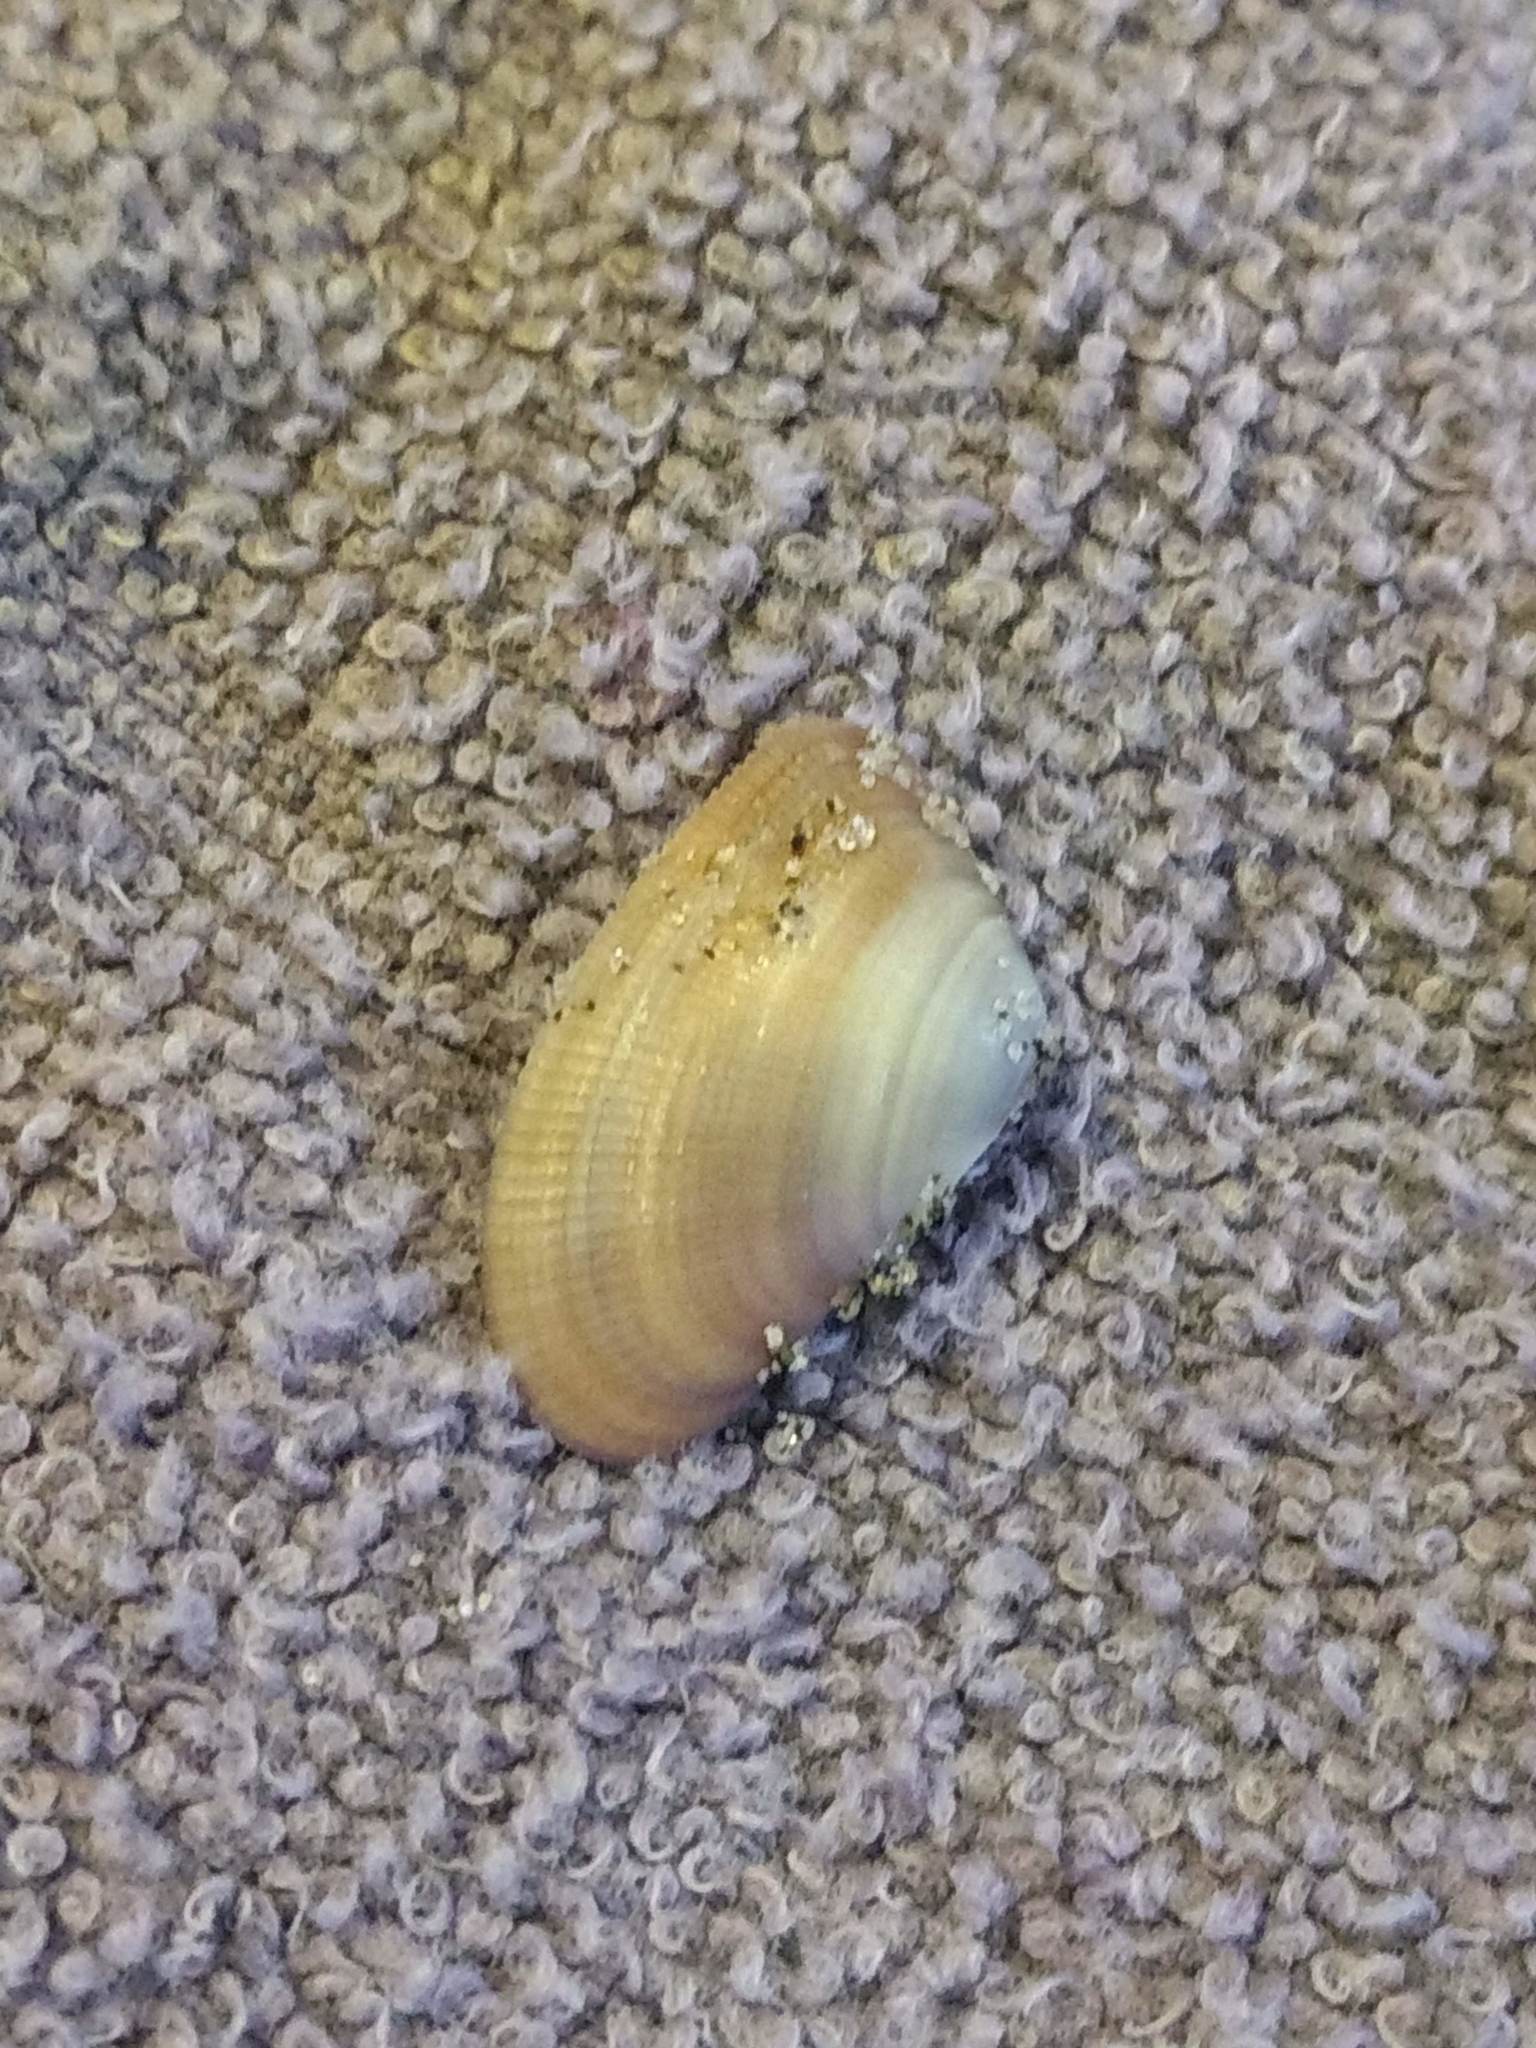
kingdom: Animalia
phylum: Mollusca
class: Bivalvia
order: Cardiida
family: Donacidae
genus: Donax
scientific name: Donax gouldii
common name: Gould beanclam
